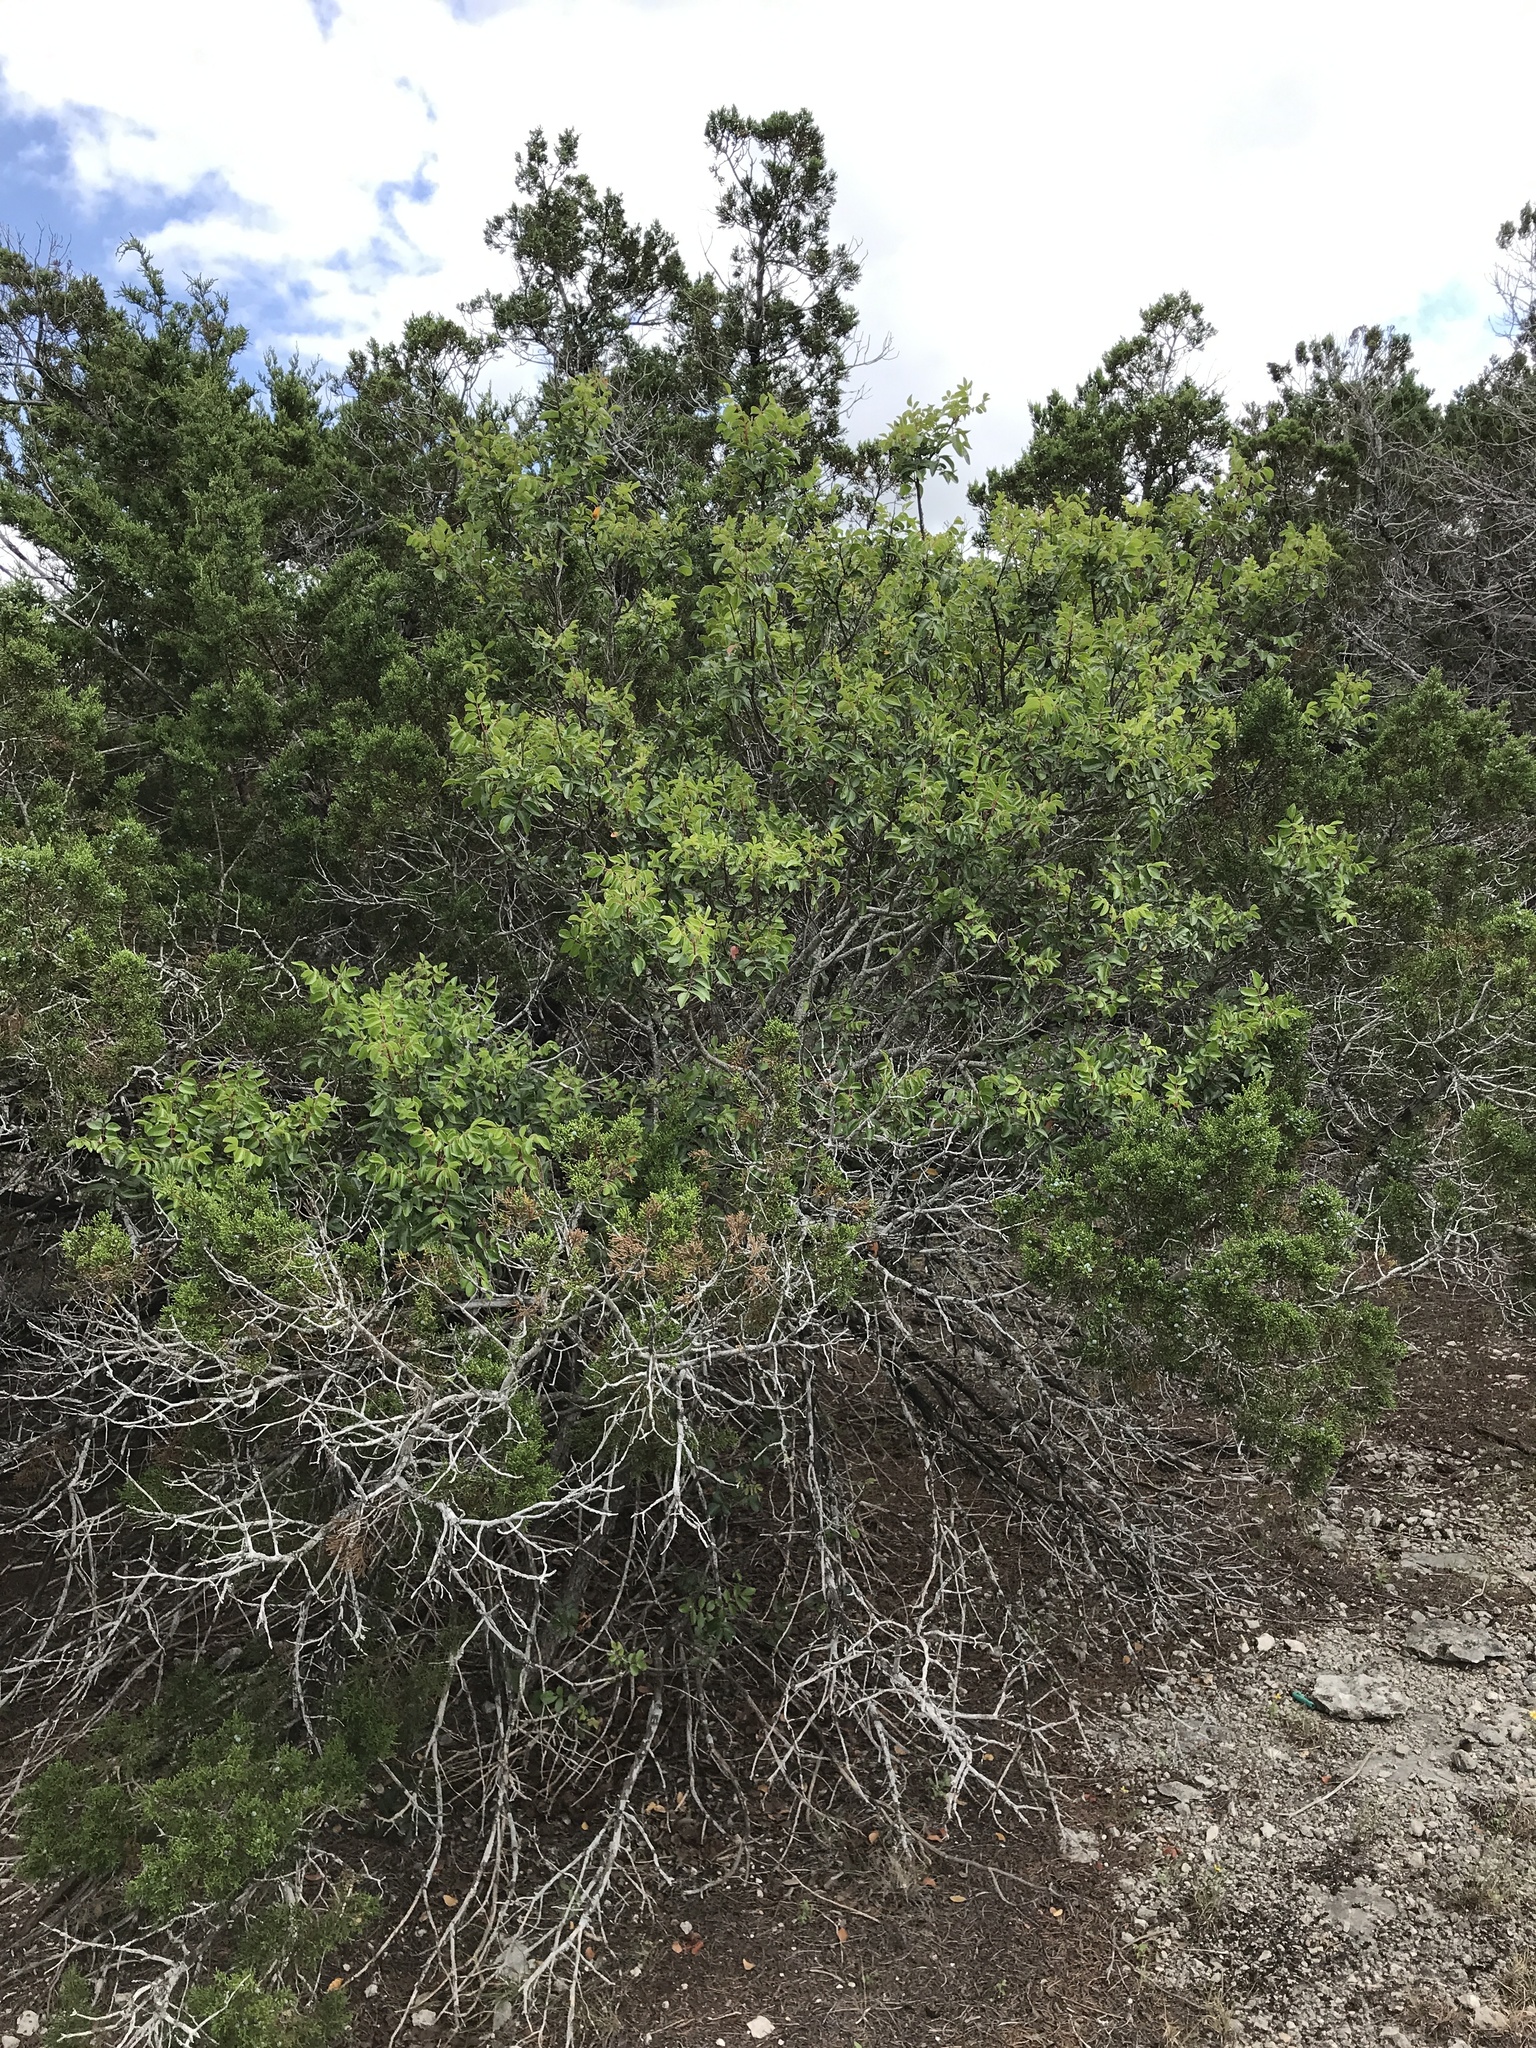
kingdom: Plantae
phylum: Tracheophyta
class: Magnoliopsida
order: Sapindales
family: Anacardiaceae
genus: Rhus
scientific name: Rhus virens
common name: Evergreen sumac
